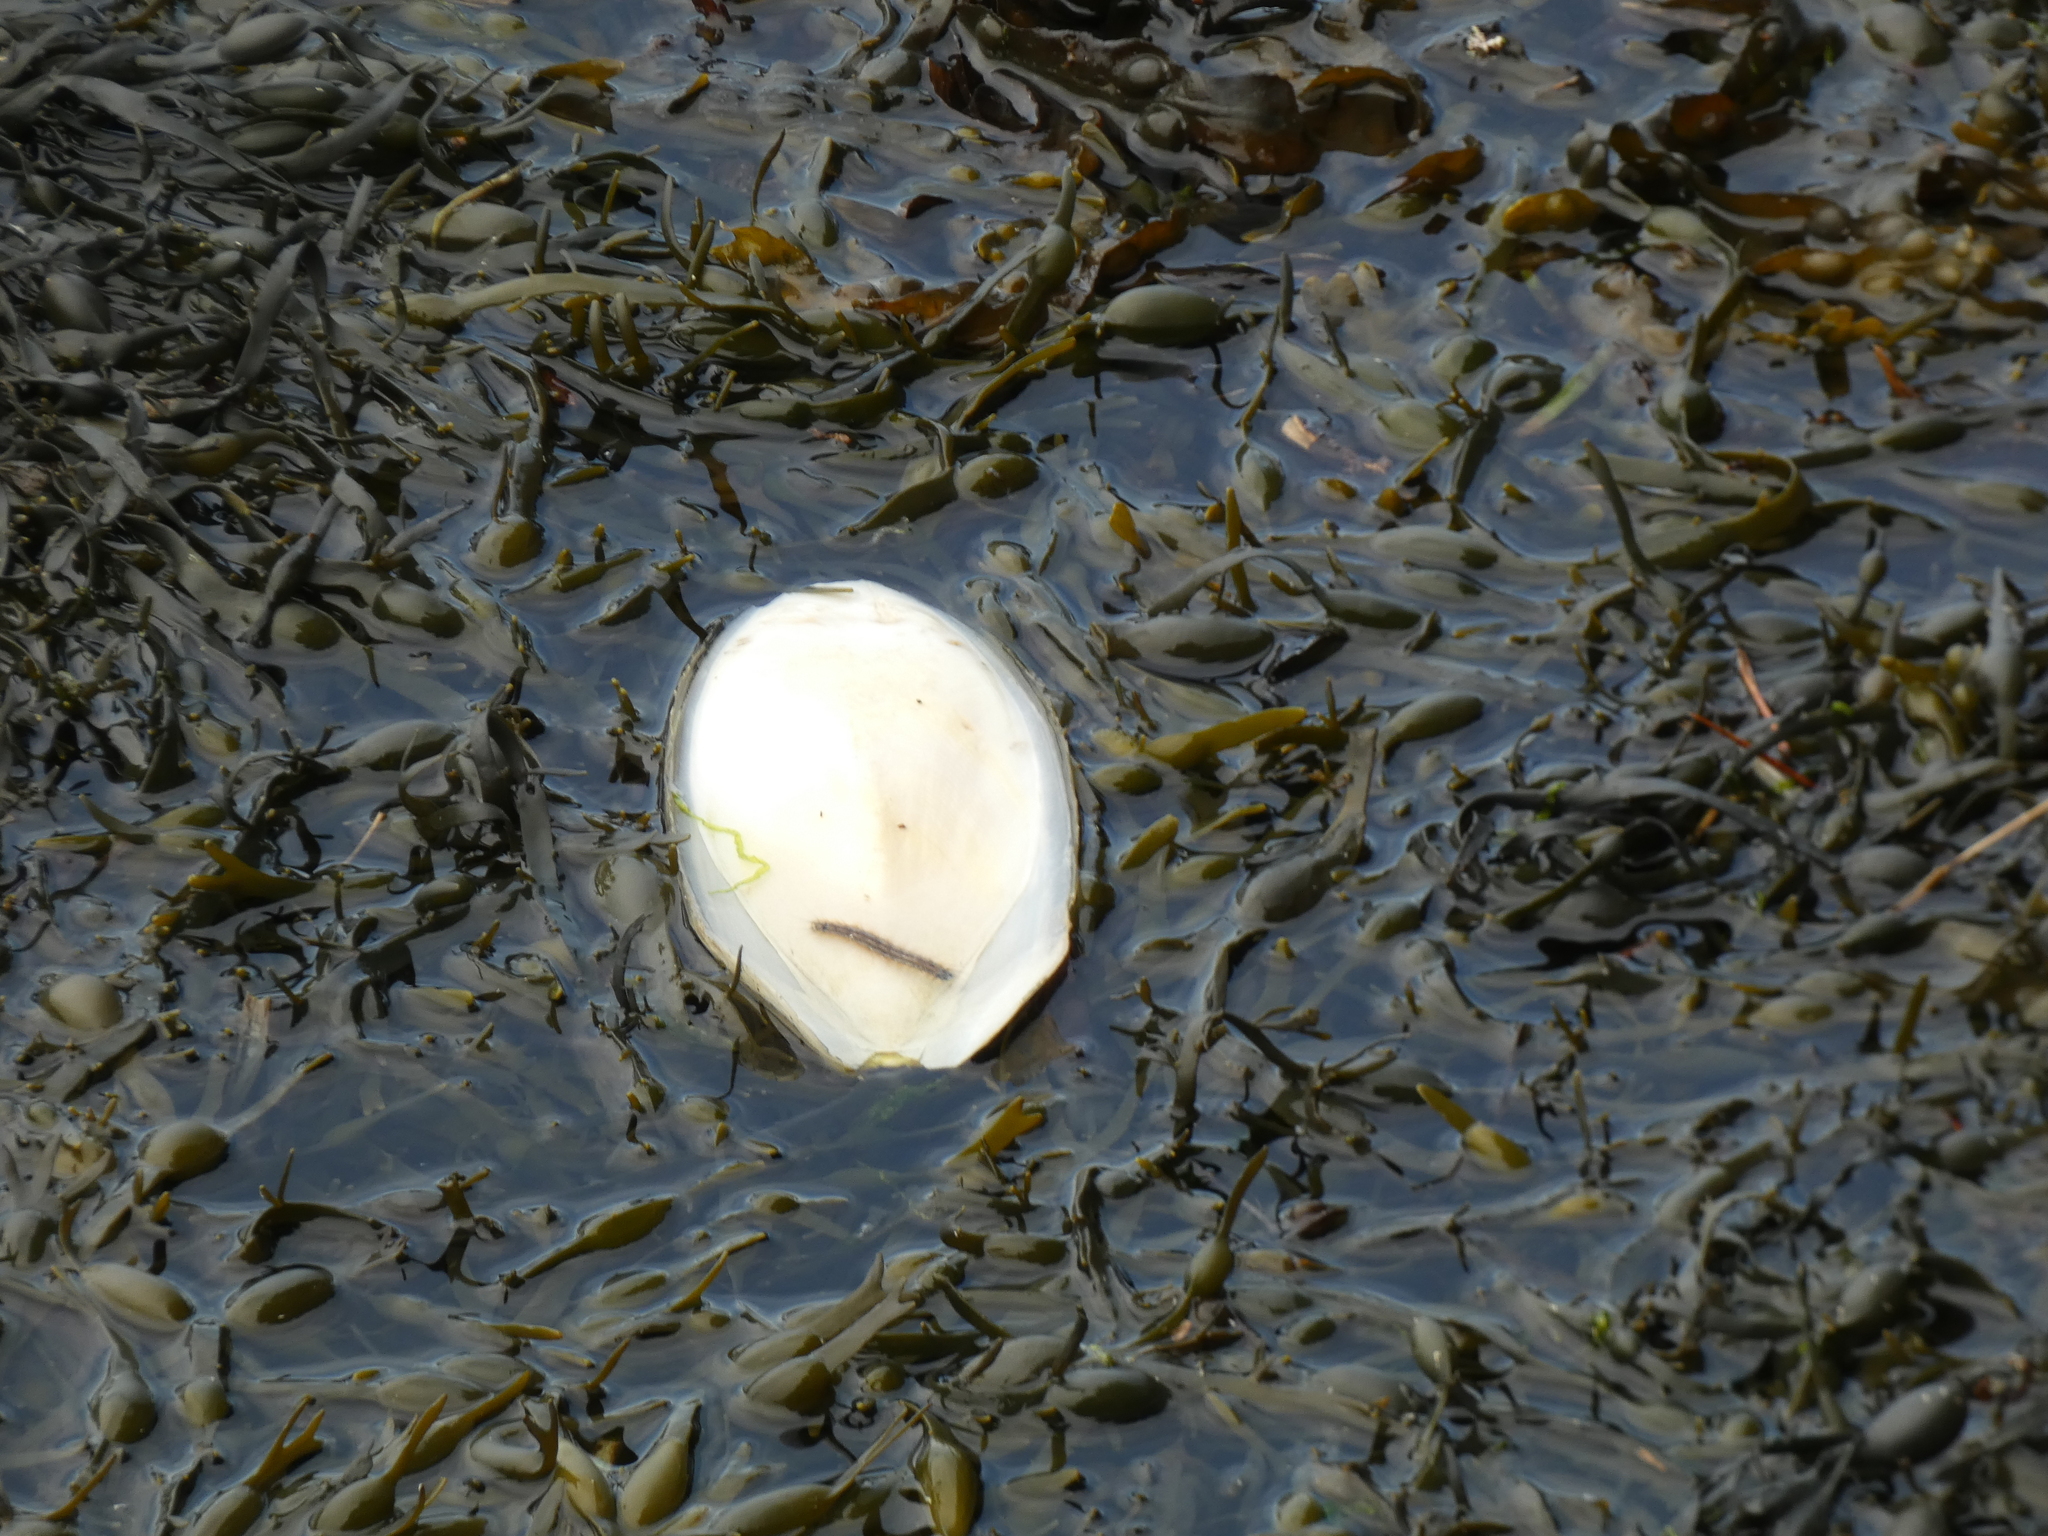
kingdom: Animalia
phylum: Mollusca
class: Cephalopoda
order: Sepiida
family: Sepiidae
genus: Sepia
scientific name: Sepia officinalis
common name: Common cuttlefish
